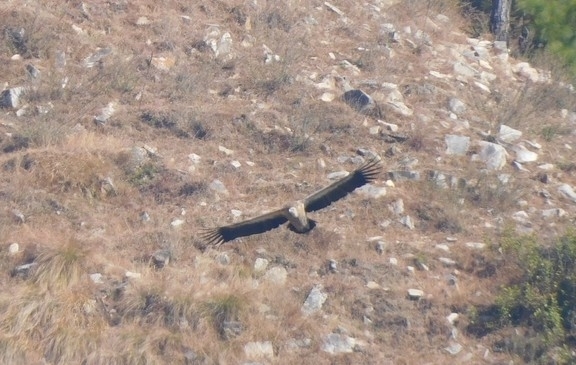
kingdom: Animalia
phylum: Chordata
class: Aves
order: Accipitriformes
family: Accipitridae
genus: Gyps
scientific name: Gyps himalayensis
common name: Himalayan griffon
